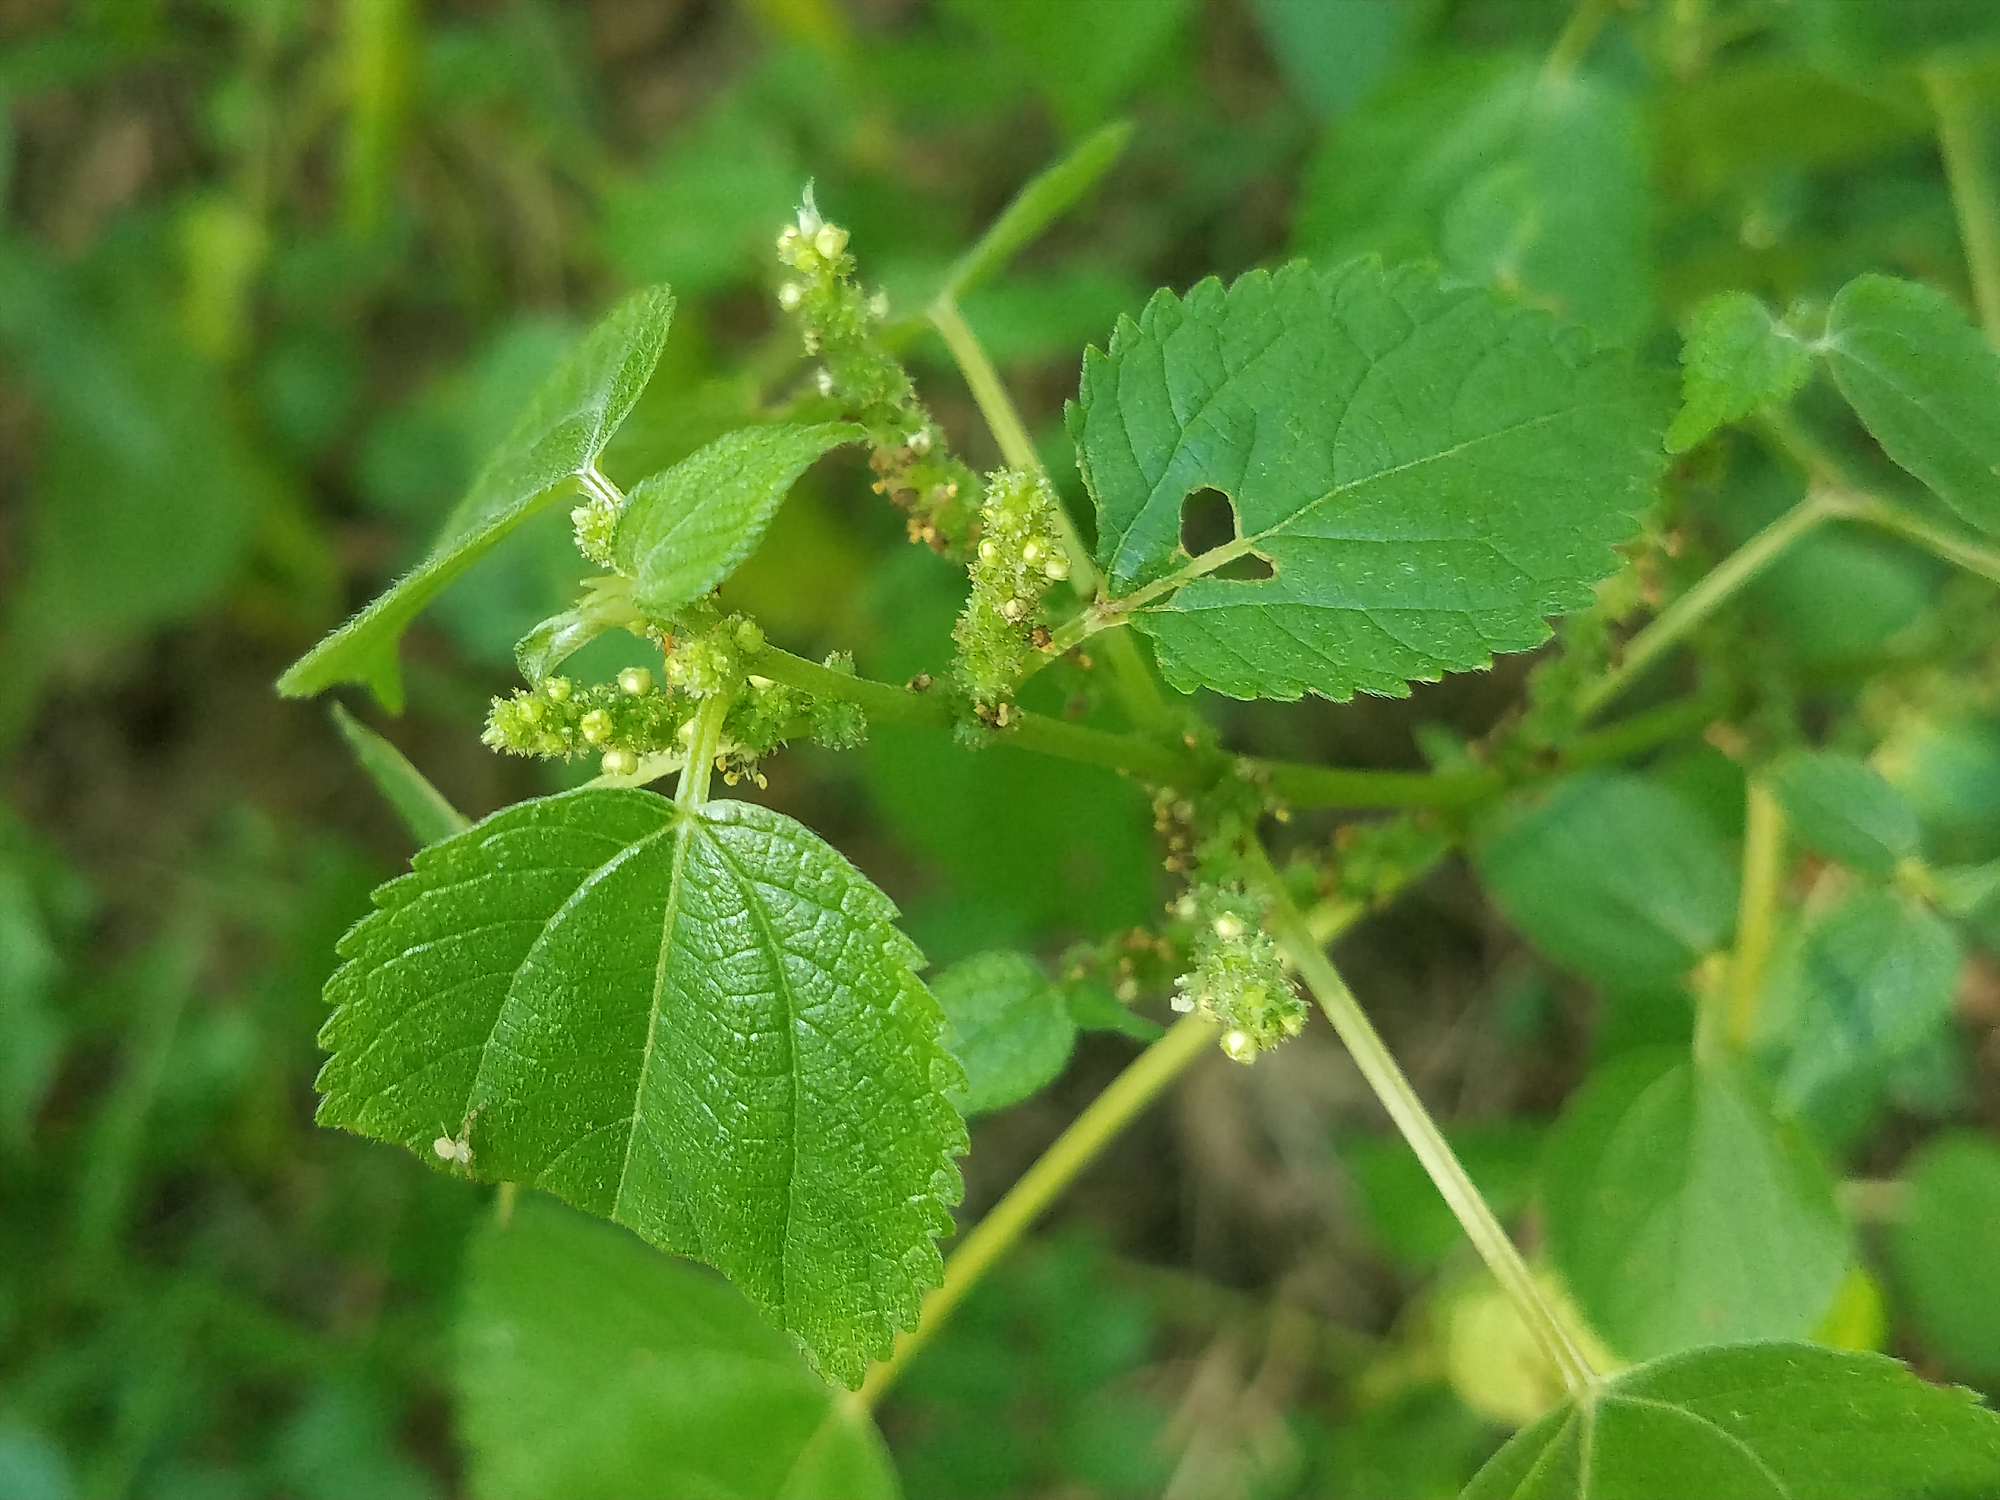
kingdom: Plantae
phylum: Tracheophyta
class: Magnoliopsida
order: Rosales
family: Urticaceae
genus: Boehmeria
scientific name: Boehmeria cylindrica
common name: Bog-hemp
